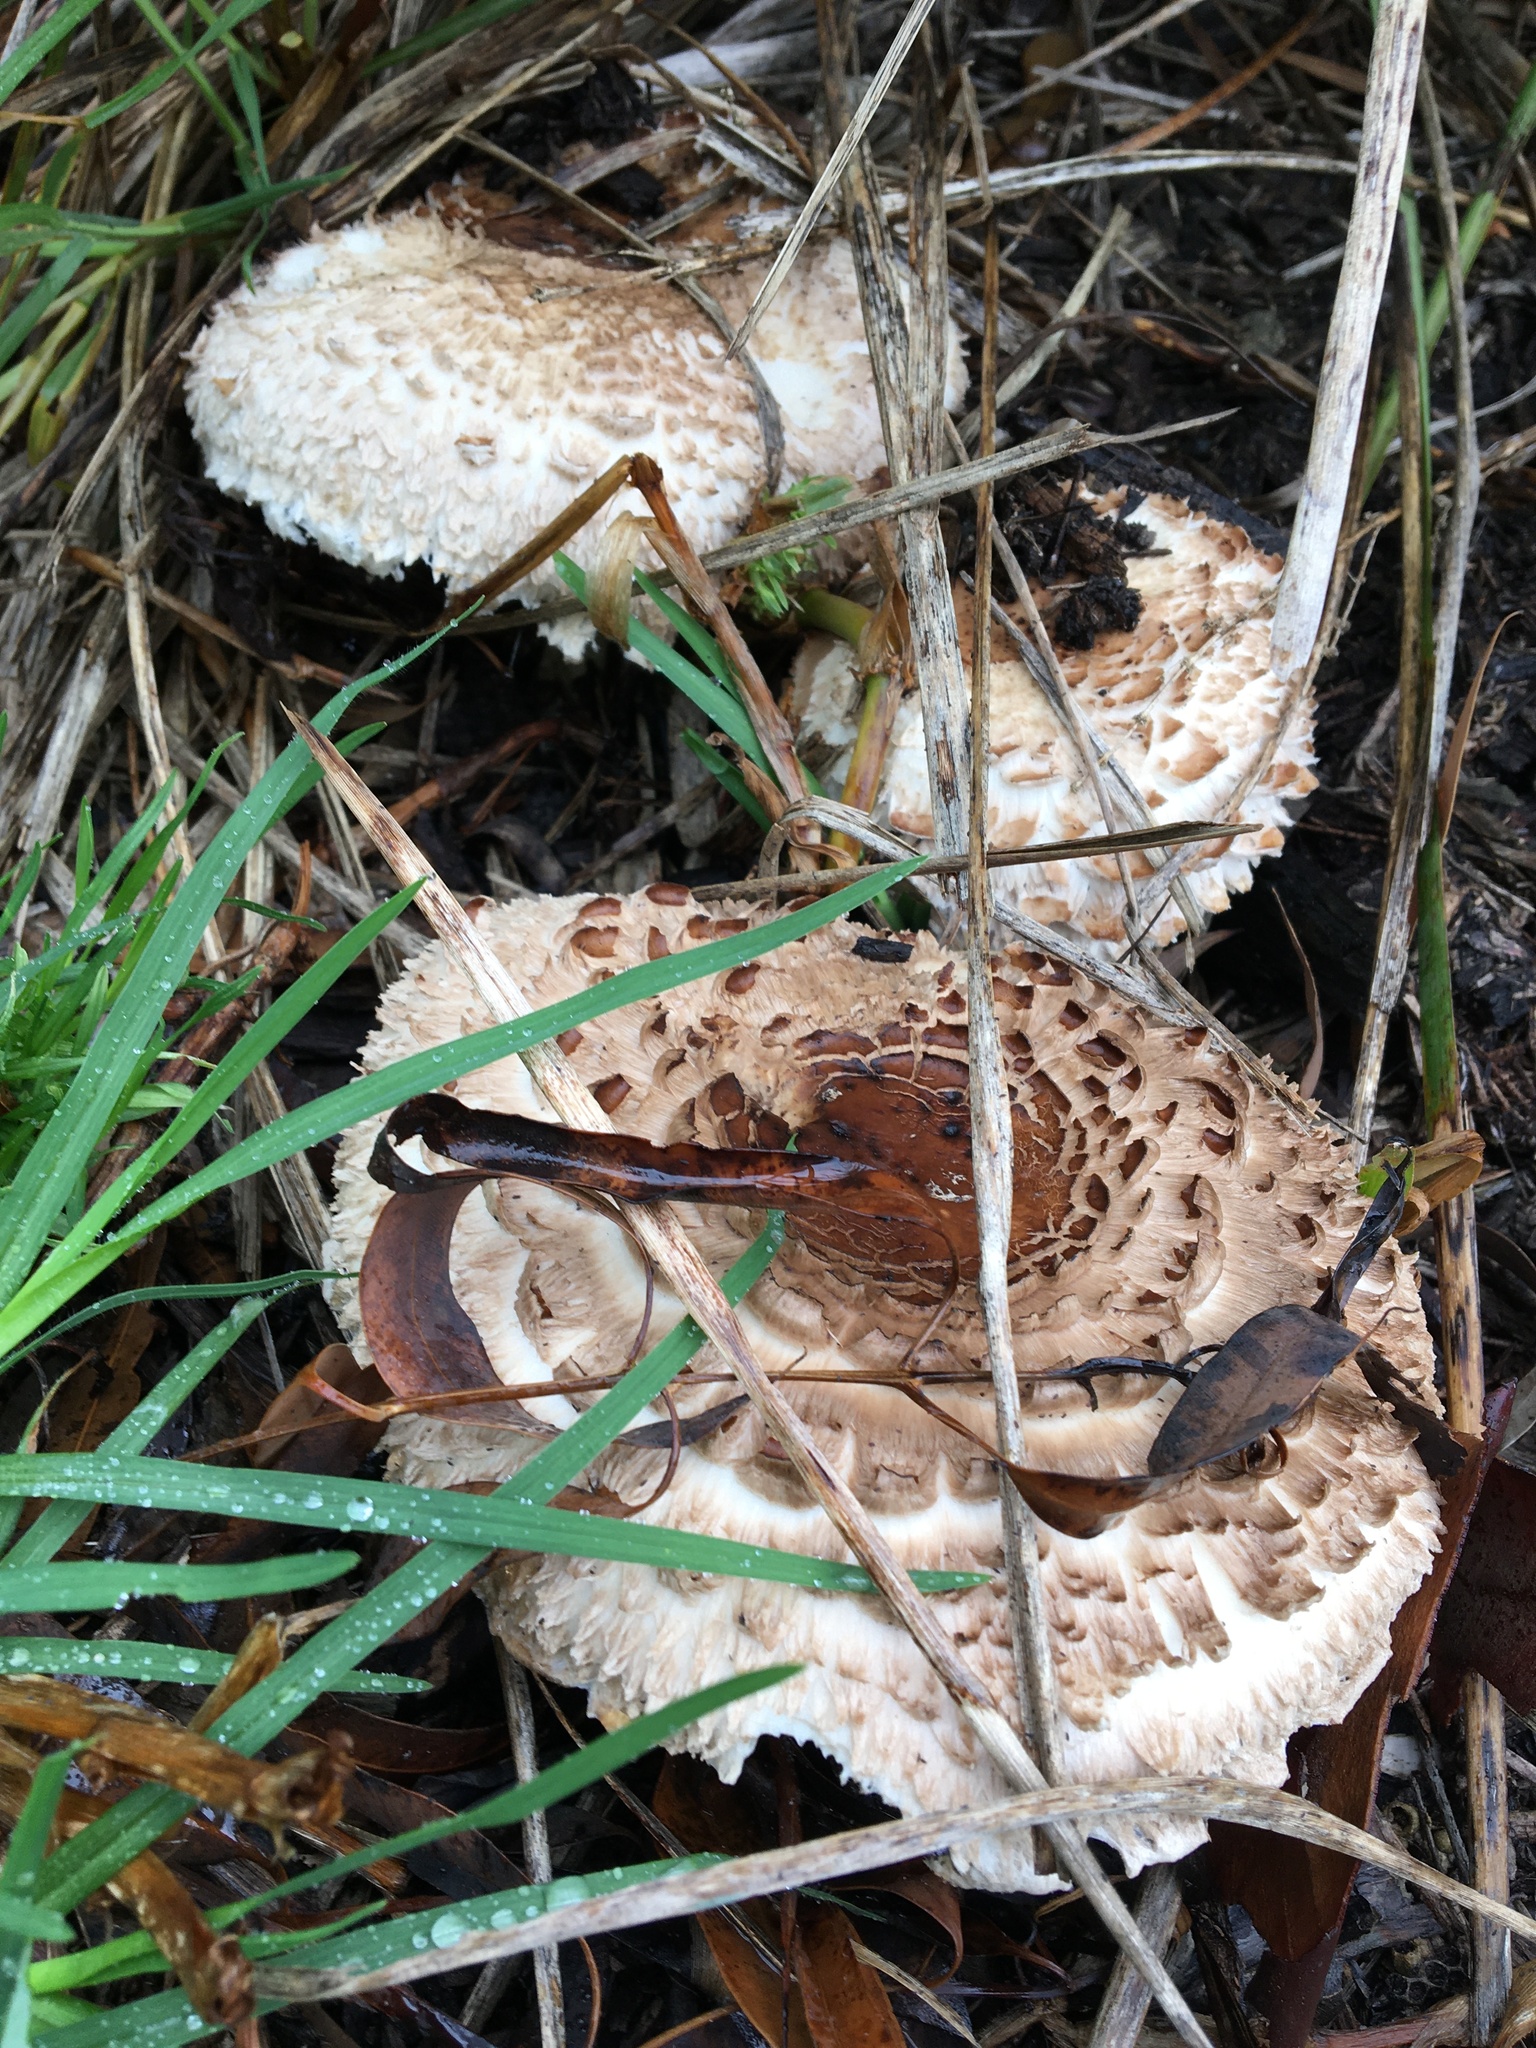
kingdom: Fungi
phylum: Basidiomycota
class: Agaricomycetes
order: Agaricales
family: Agaricaceae
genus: Chlorophyllum
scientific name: Chlorophyllum brunneum
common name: Brown parasol
